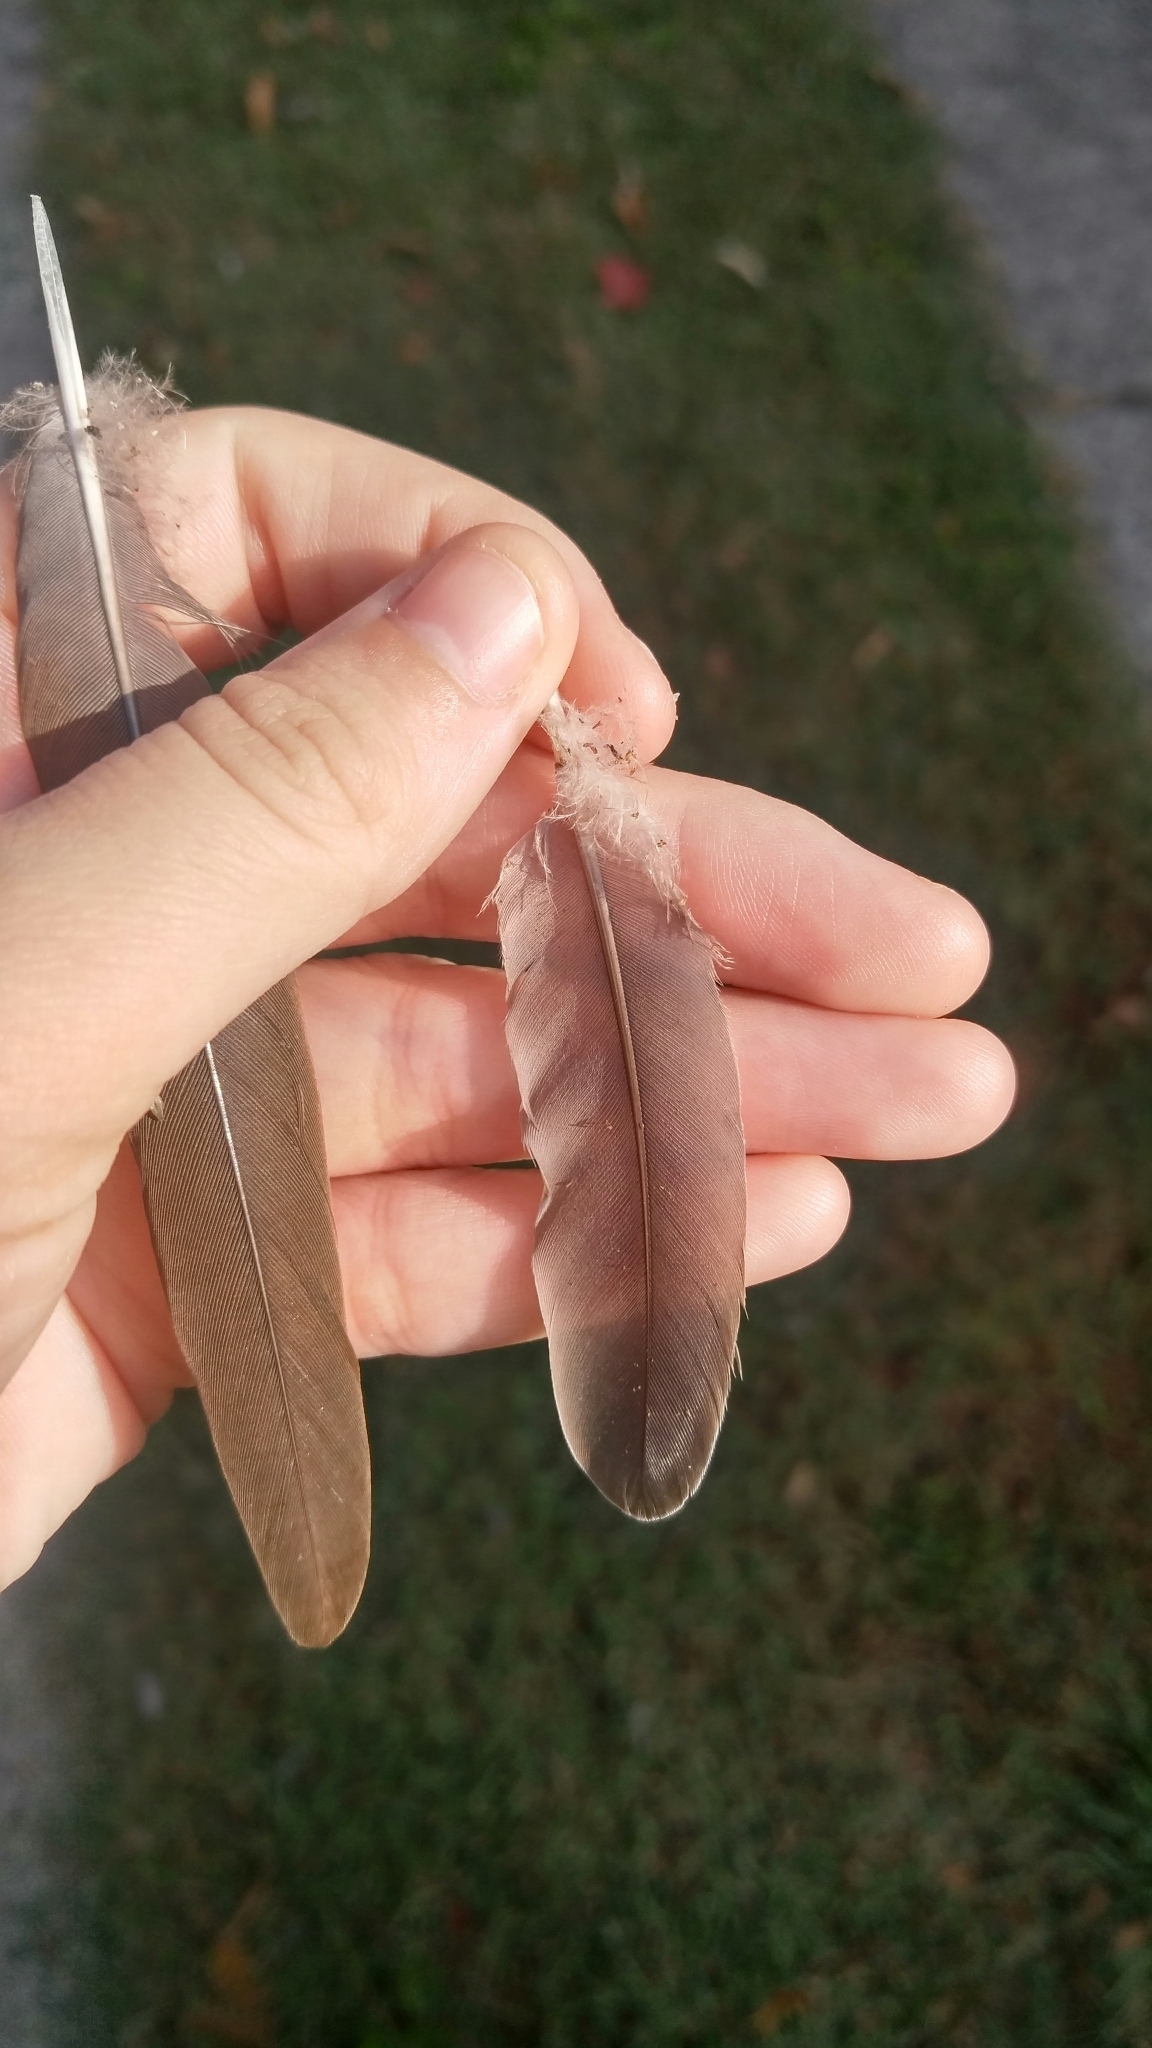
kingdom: Animalia
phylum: Chordata
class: Aves
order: Columbiformes
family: Columbidae
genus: Zenaida
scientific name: Zenaida macroura
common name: Mourning dove
